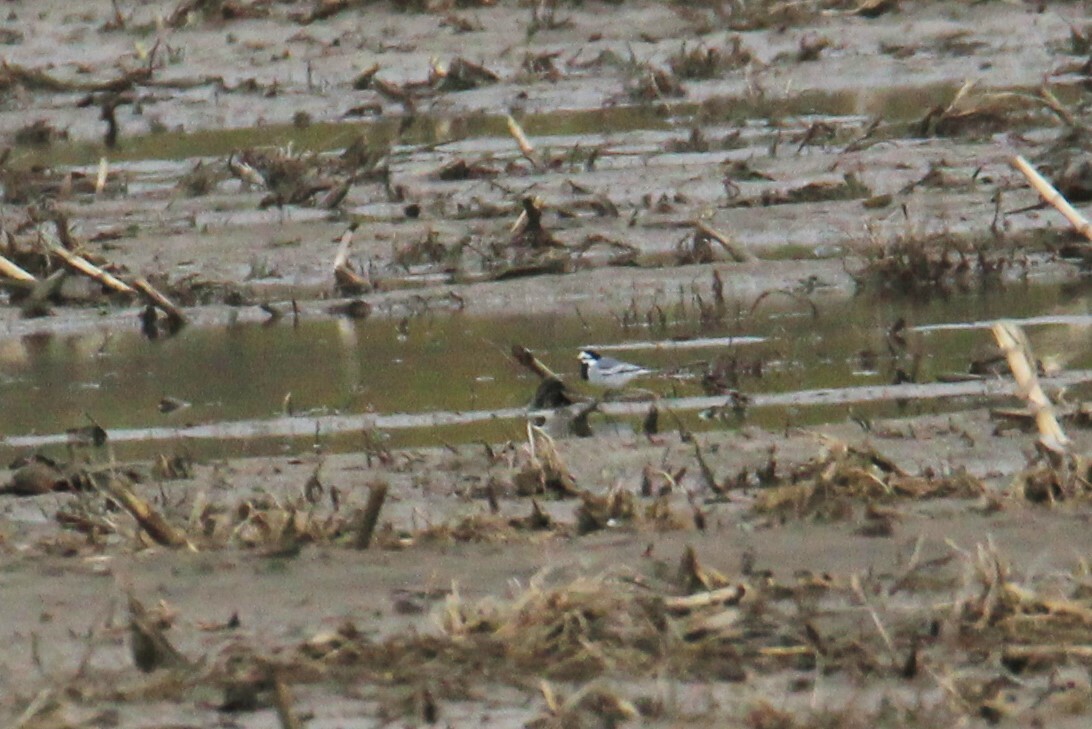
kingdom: Animalia
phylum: Chordata
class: Aves
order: Passeriformes
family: Motacillidae
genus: Motacilla
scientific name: Motacilla alba
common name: White wagtail
